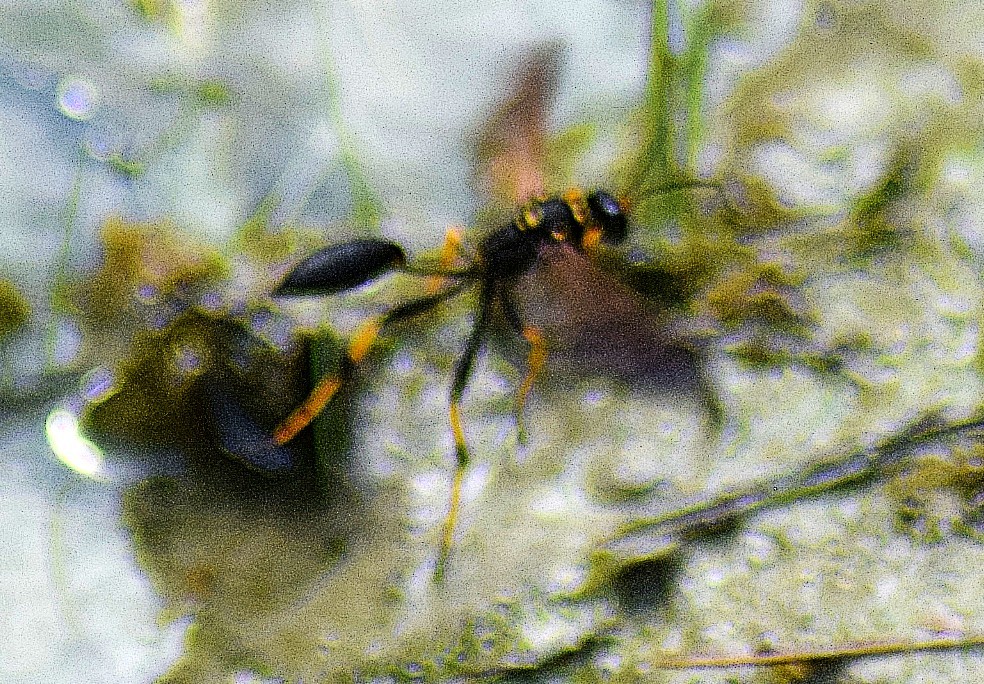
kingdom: Animalia
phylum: Arthropoda
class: Insecta
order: Hymenoptera
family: Sphecidae
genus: Sceliphron
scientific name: Sceliphron caementarium
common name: Mud dauber
